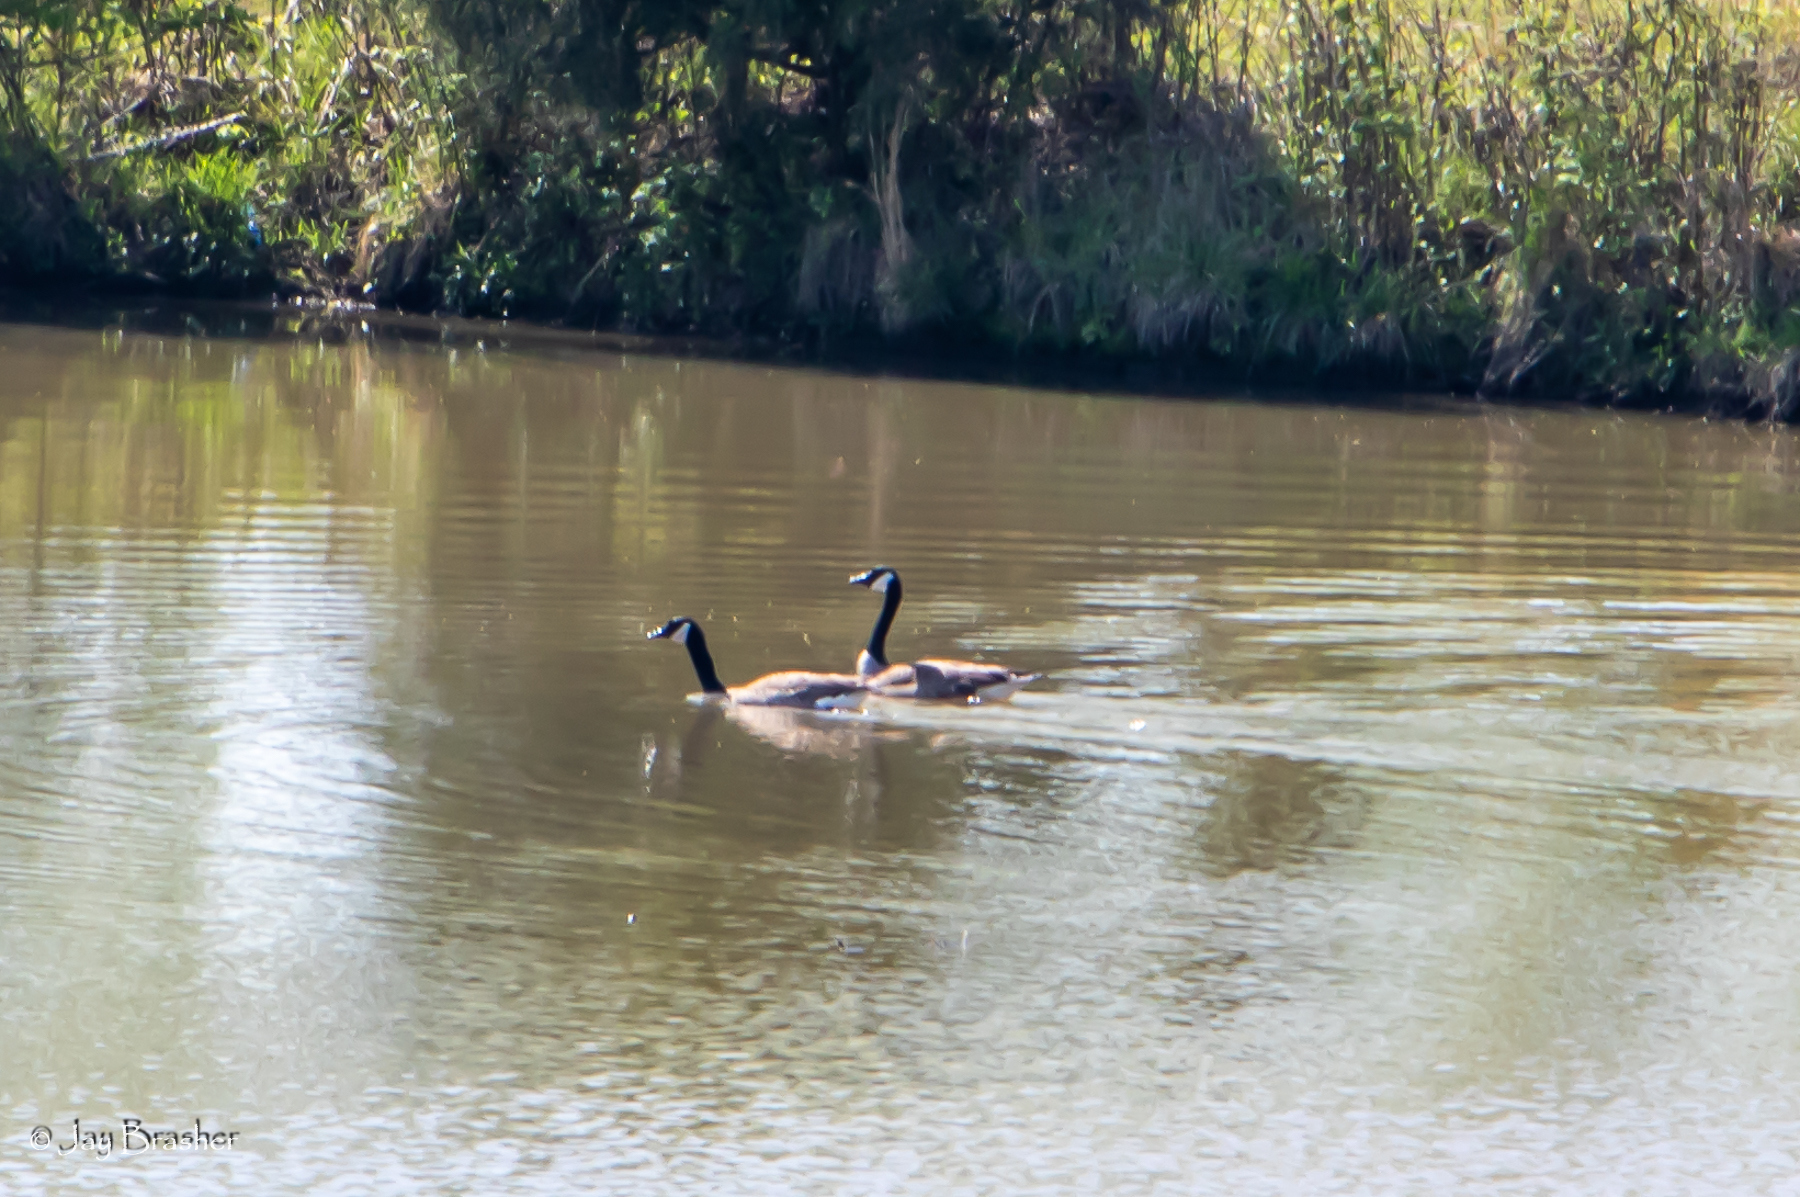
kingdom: Animalia
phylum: Chordata
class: Aves
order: Anseriformes
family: Anatidae
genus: Branta
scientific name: Branta canadensis
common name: Canada goose
